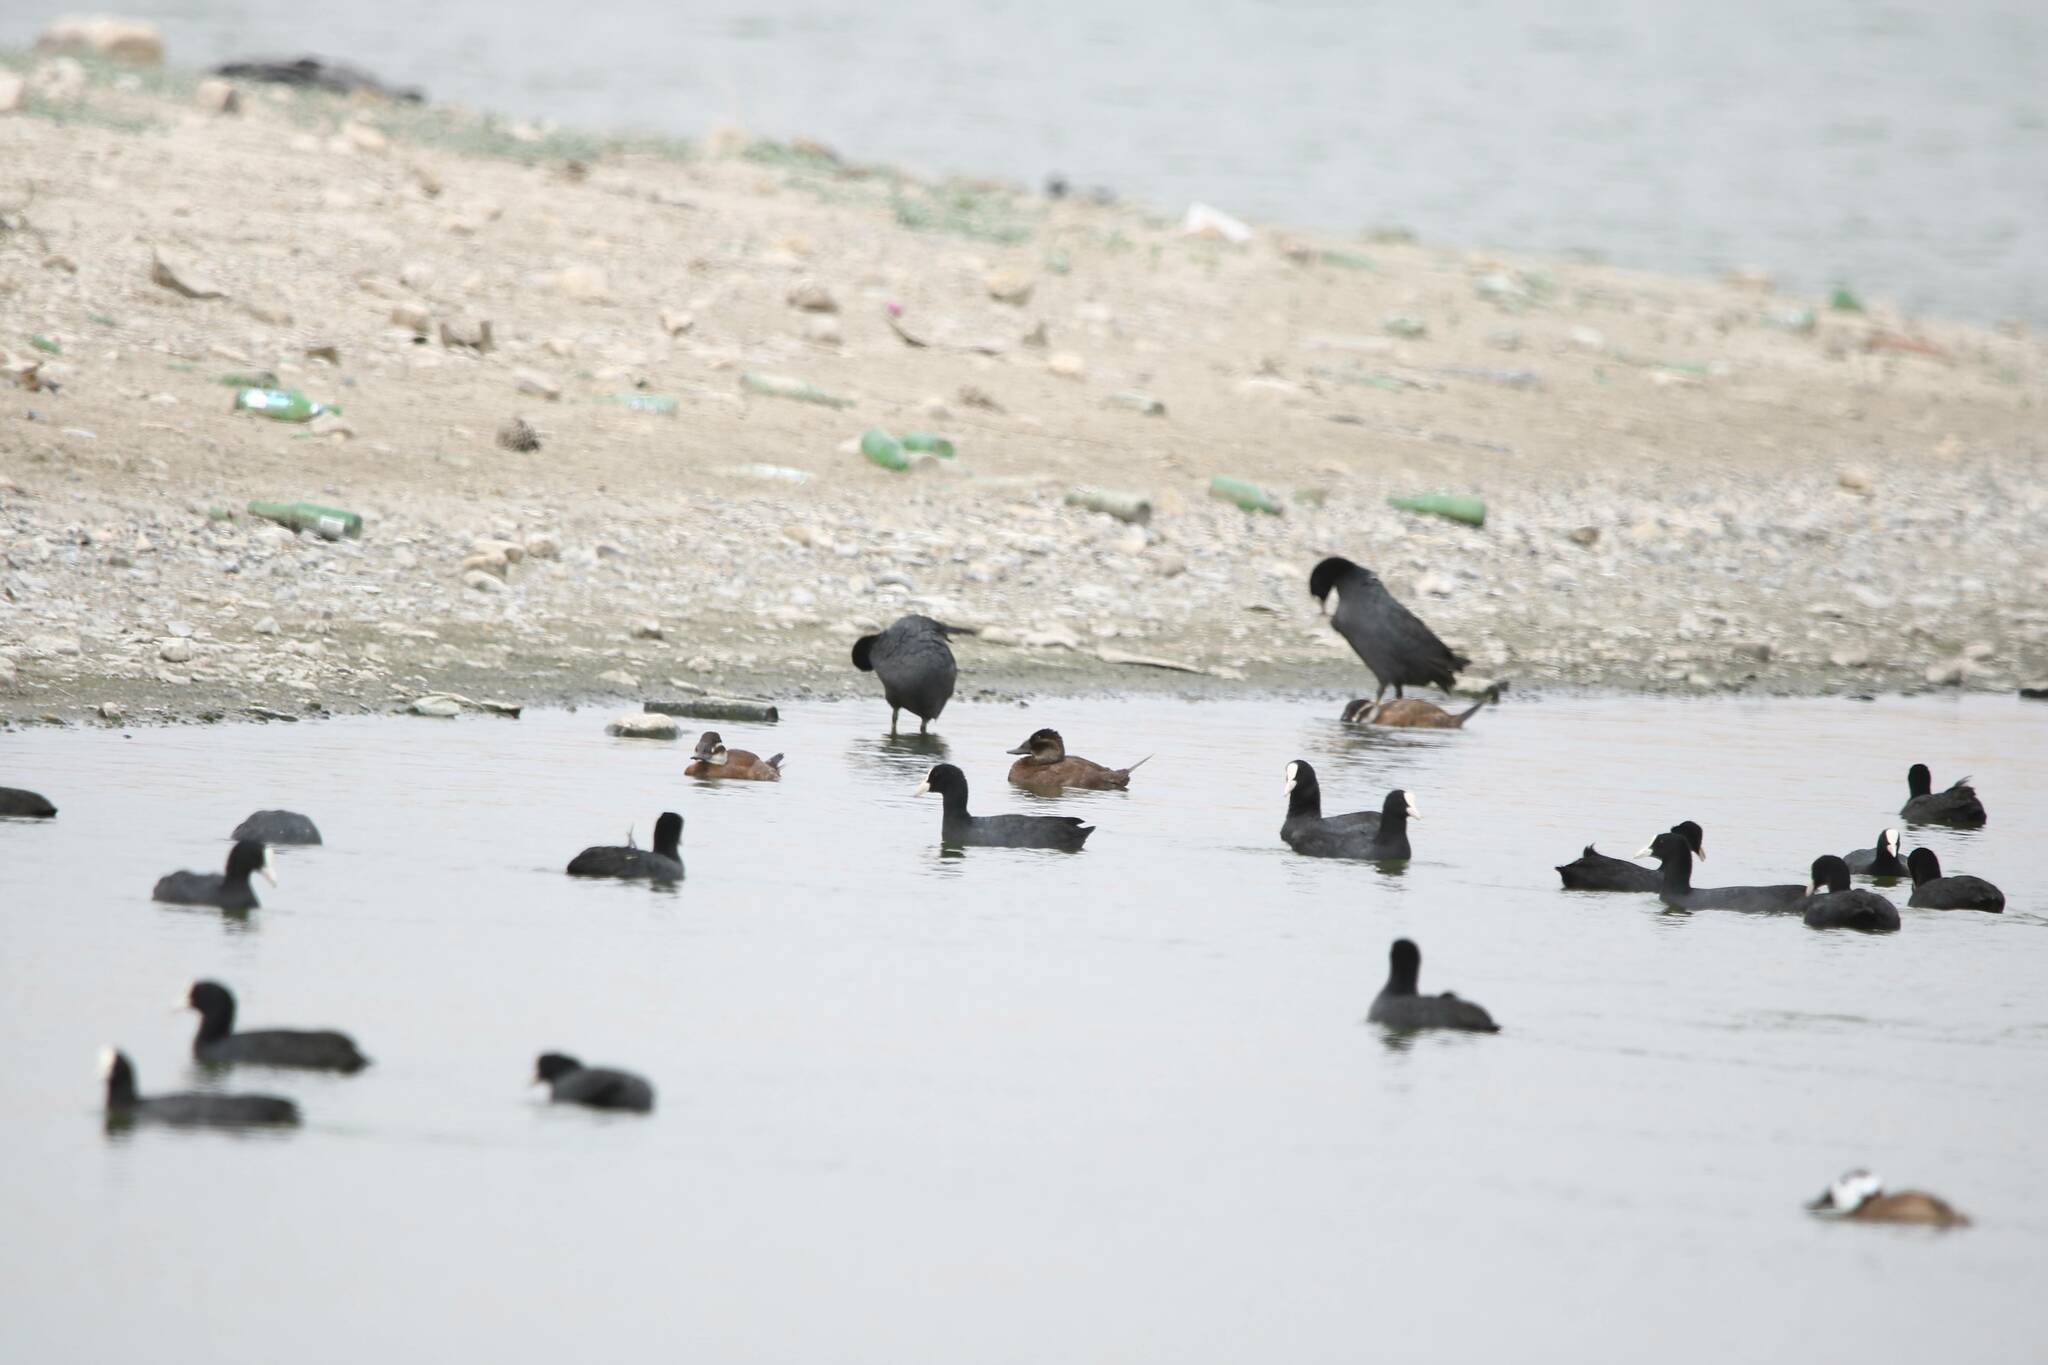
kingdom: Animalia
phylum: Chordata
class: Aves
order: Gruiformes
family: Rallidae
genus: Fulica
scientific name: Fulica atra
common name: Eurasian coot
